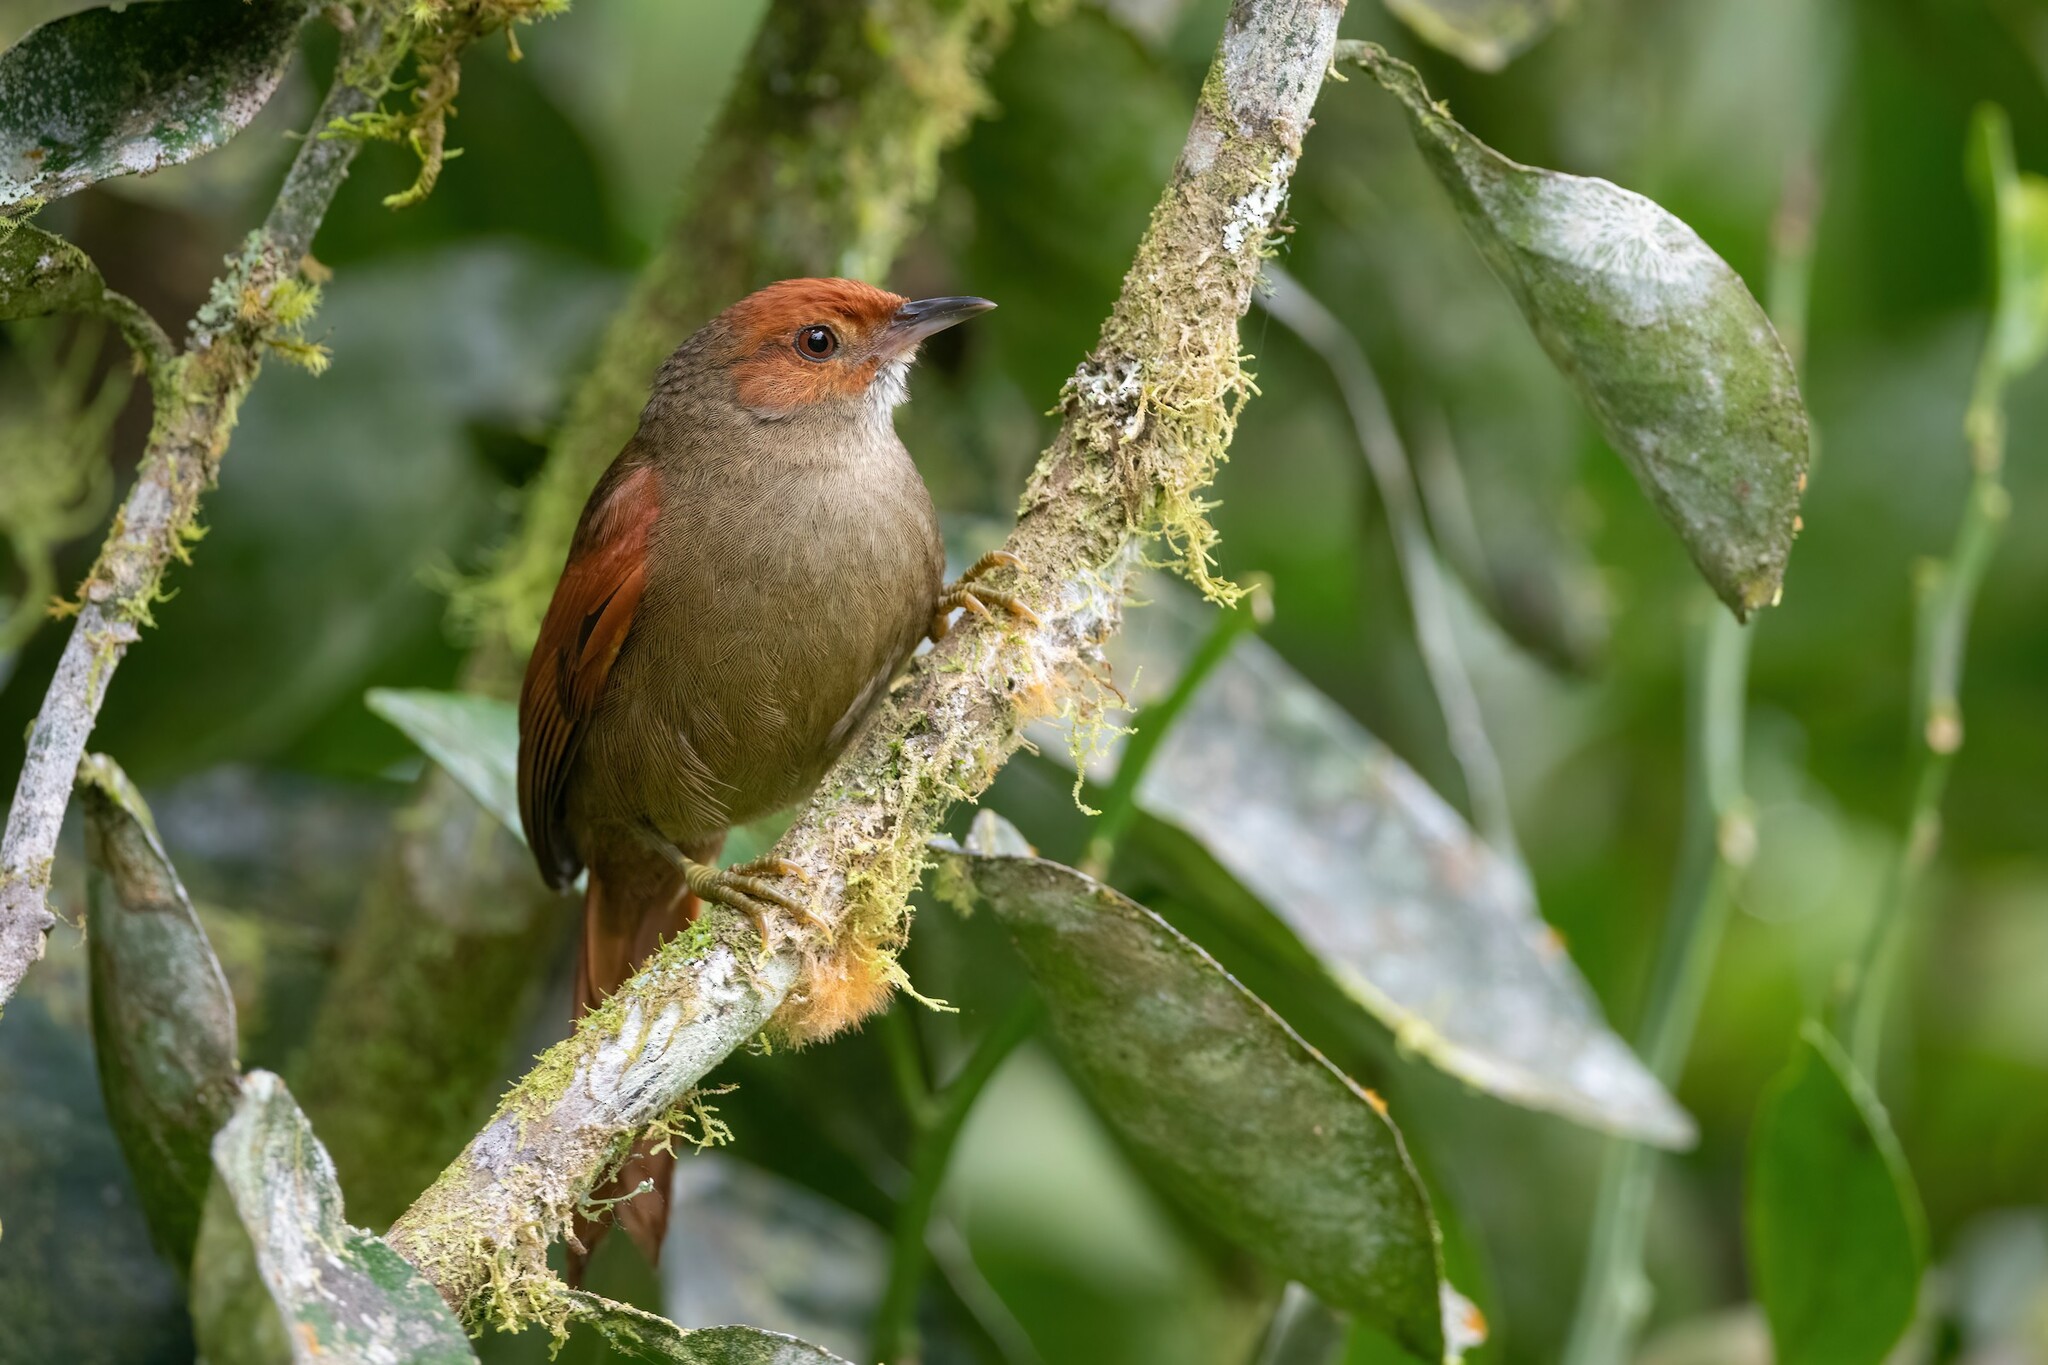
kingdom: Animalia
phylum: Chordata
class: Aves
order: Passeriformes
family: Furnariidae
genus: Cranioleuca
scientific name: Cranioleuca erythrops
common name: Red-faced spinetail
